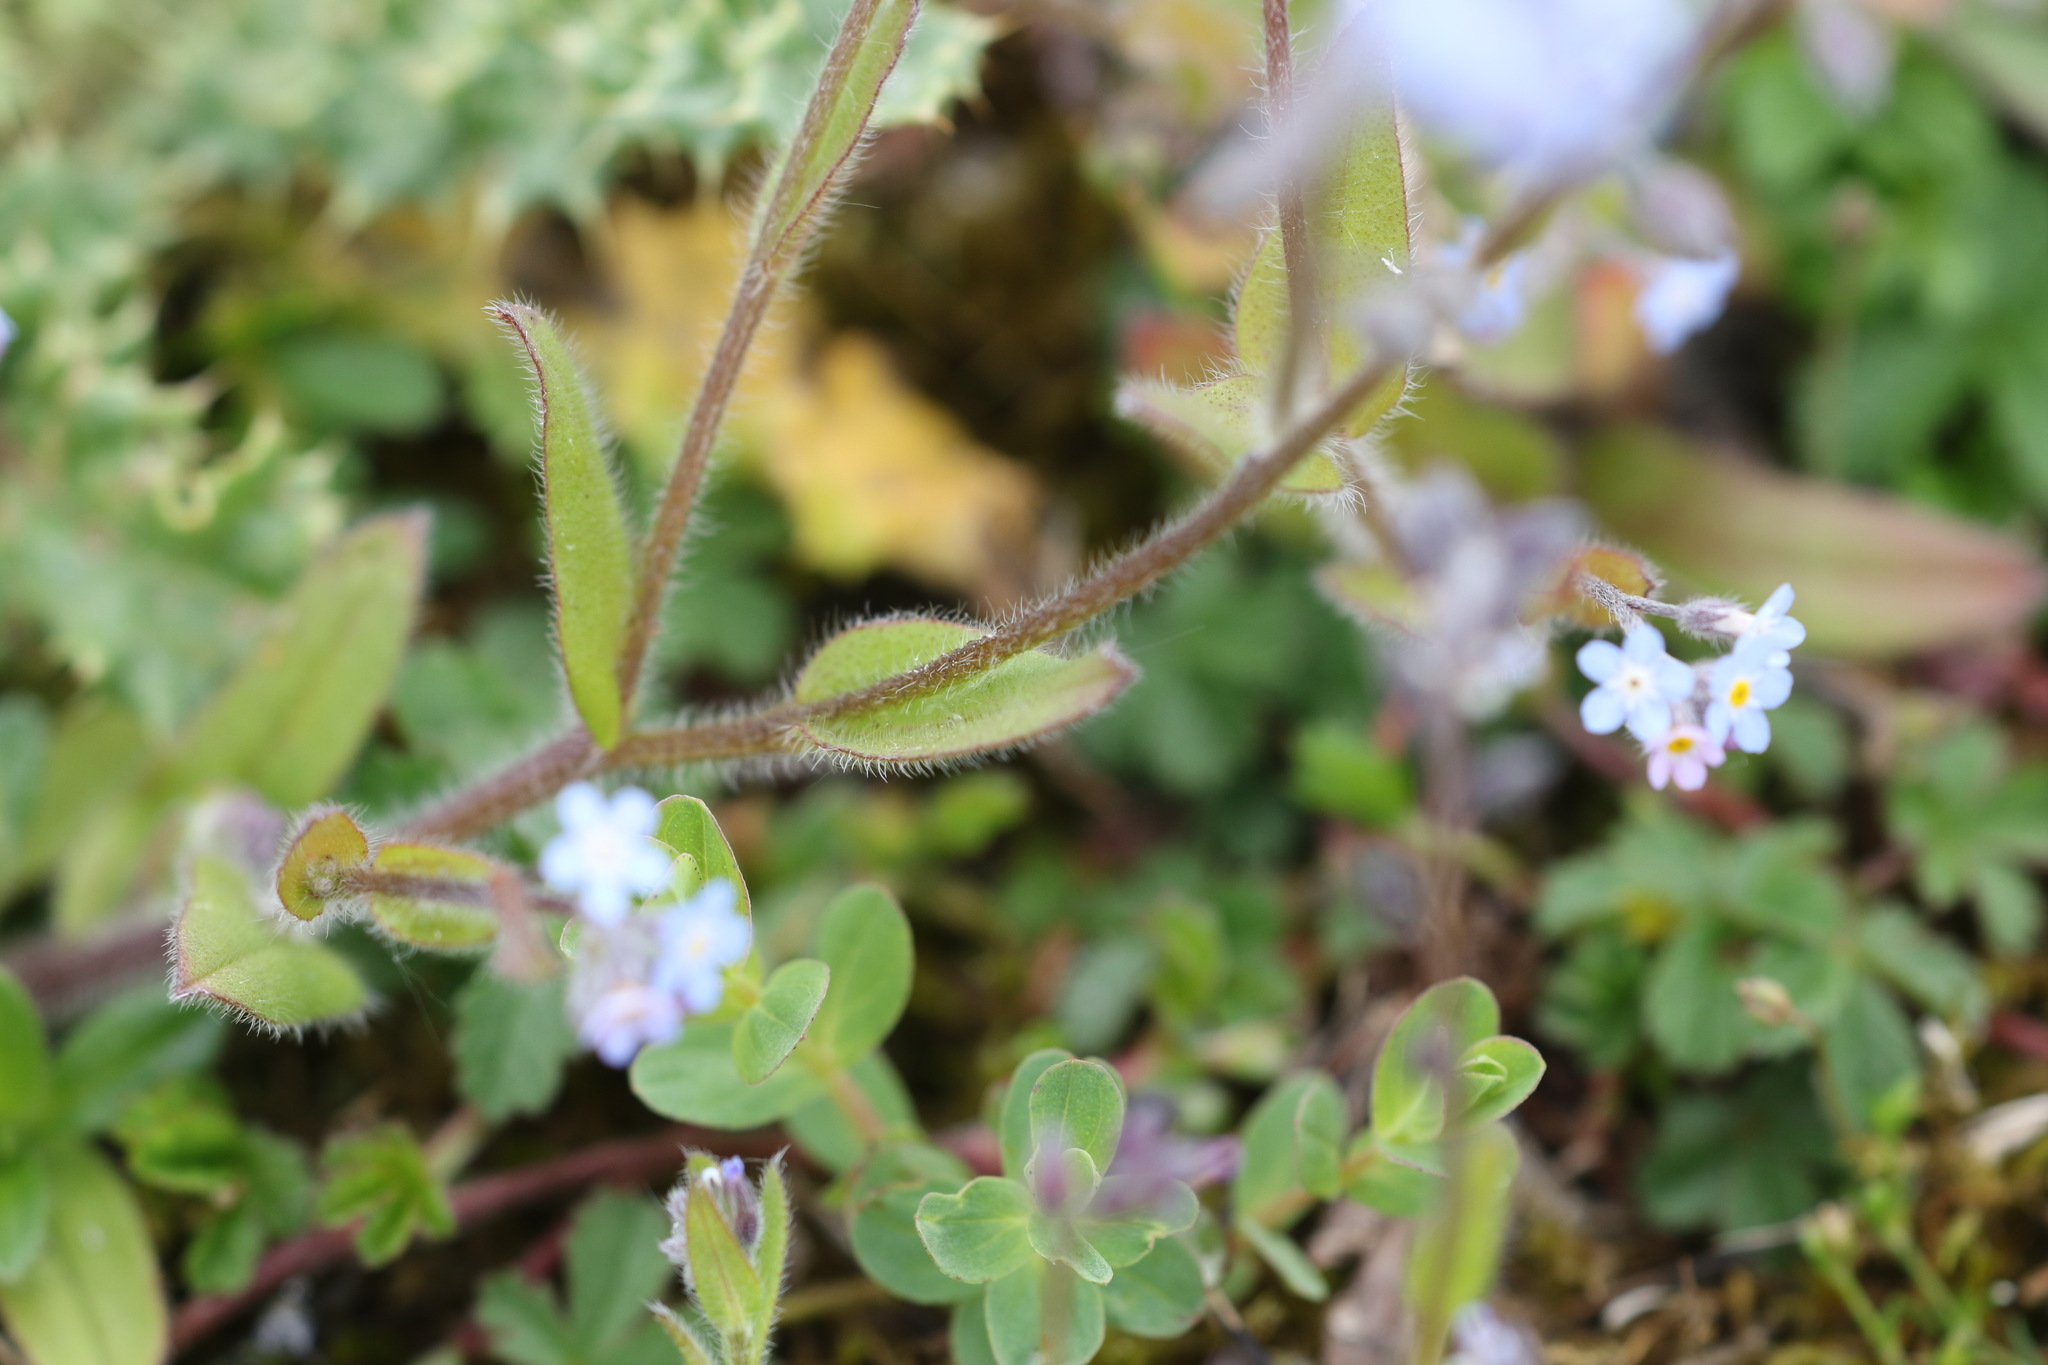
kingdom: Plantae
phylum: Tracheophyta
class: Magnoliopsida
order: Boraginales
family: Boraginaceae
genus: Myosotis
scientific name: Myosotis arvensis
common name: Field forget-me-not
